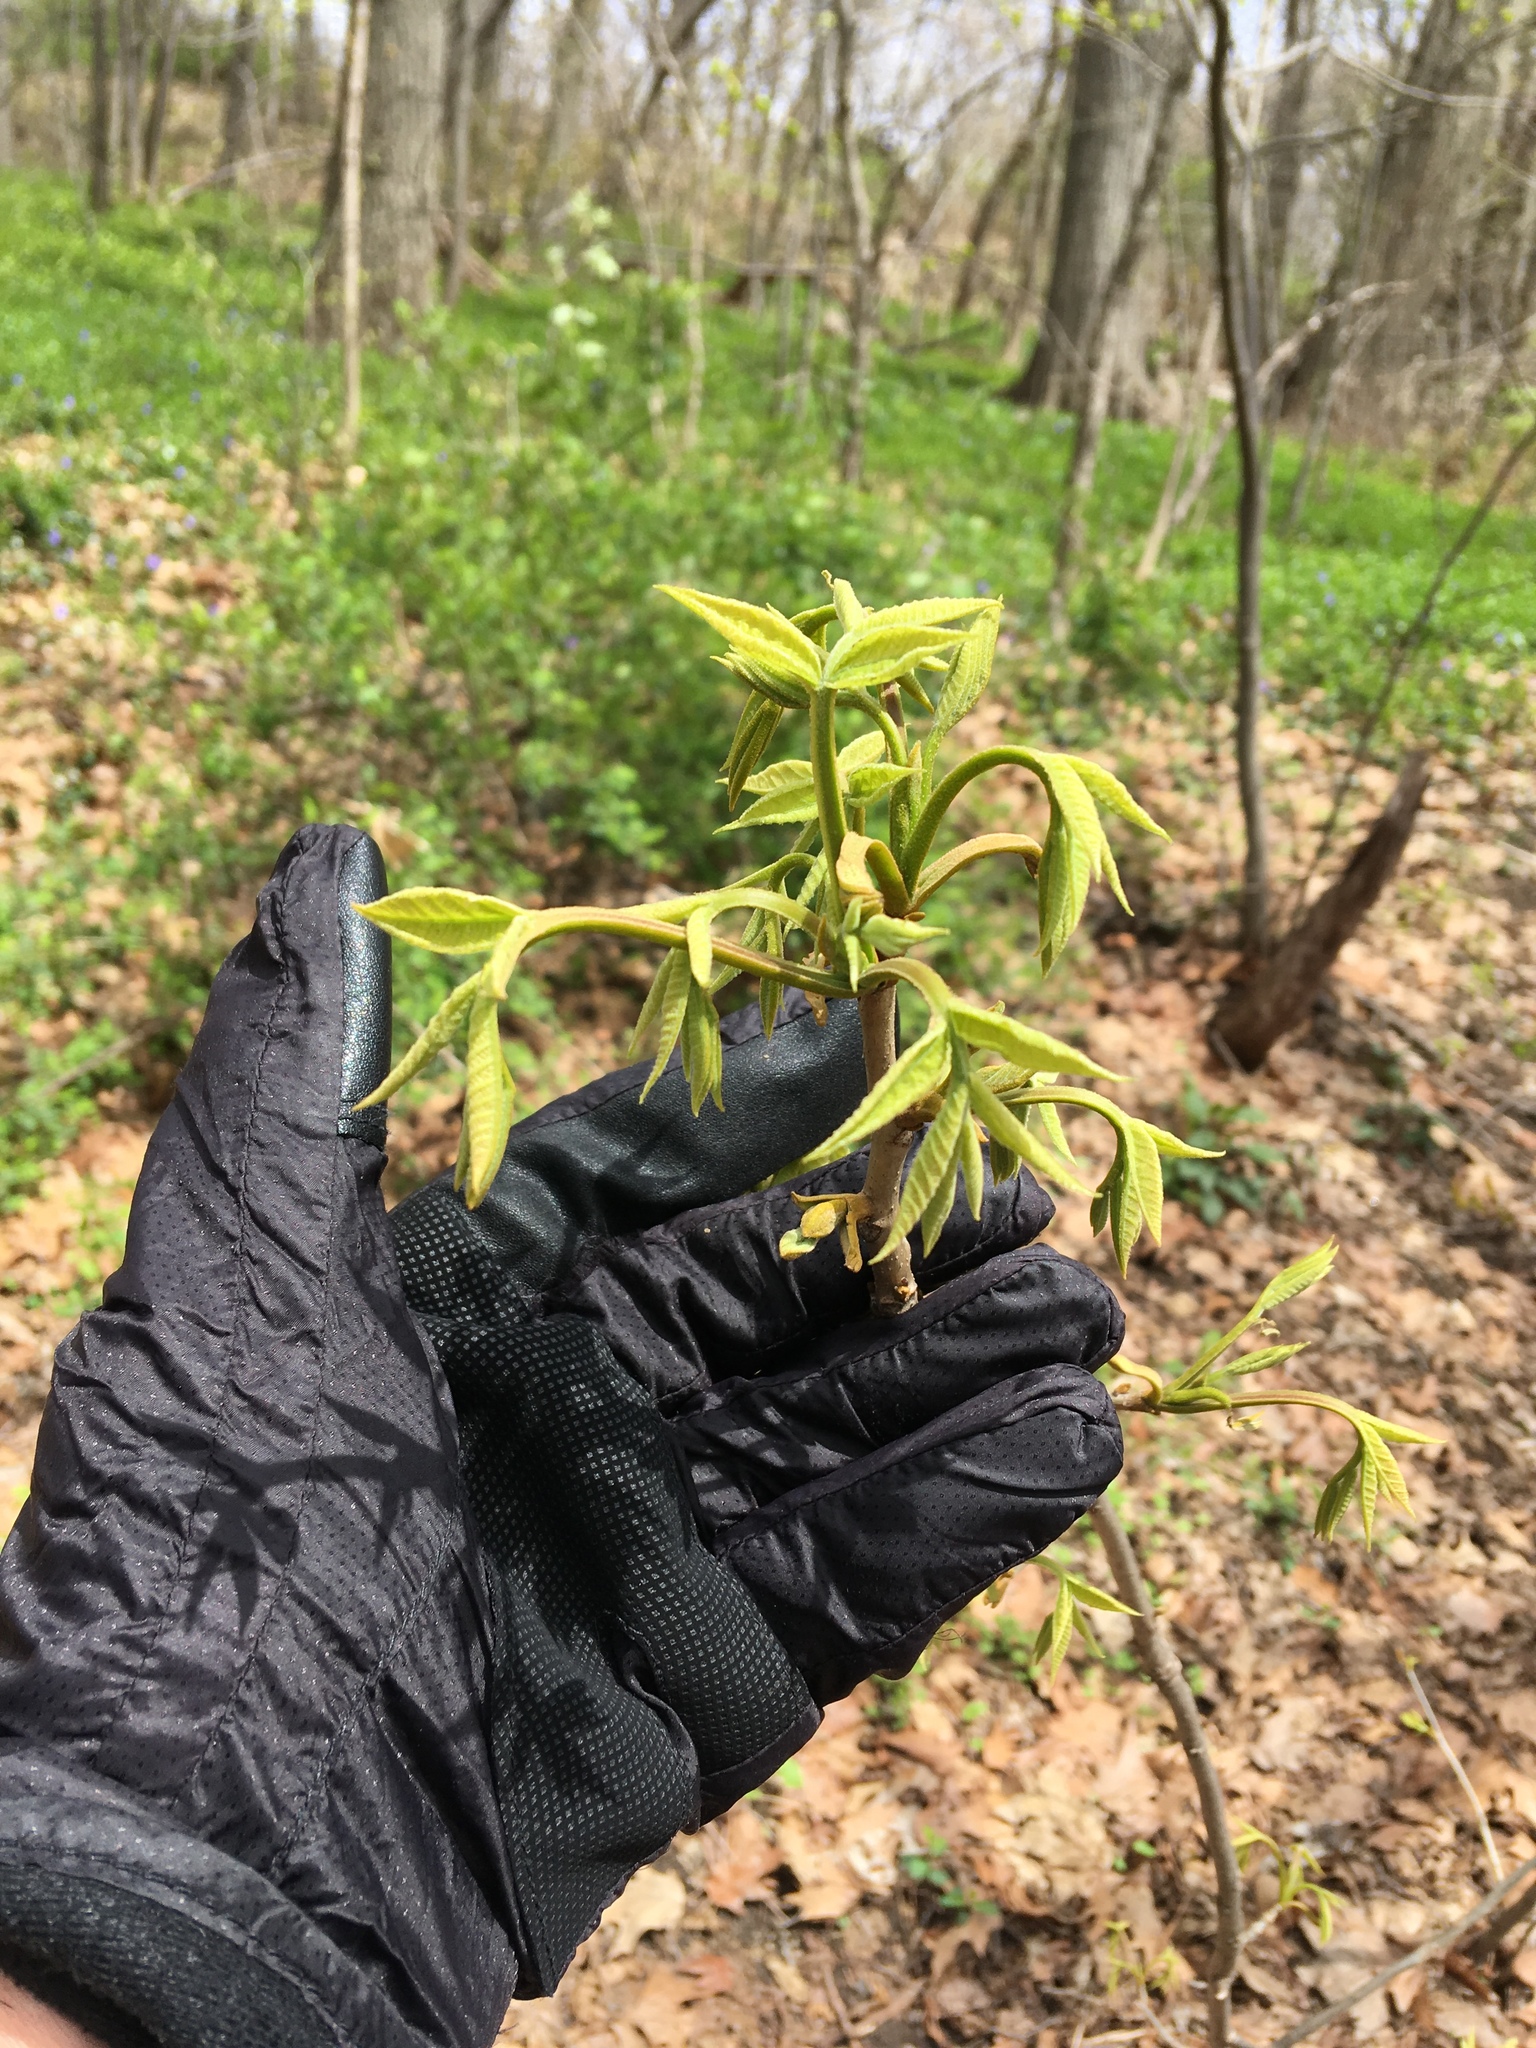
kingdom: Plantae
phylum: Tracheophyta
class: Magnoliopsida
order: Fagales
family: Juglandaceae
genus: Carya
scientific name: Carya cordiformis
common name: Bitternut hickory
